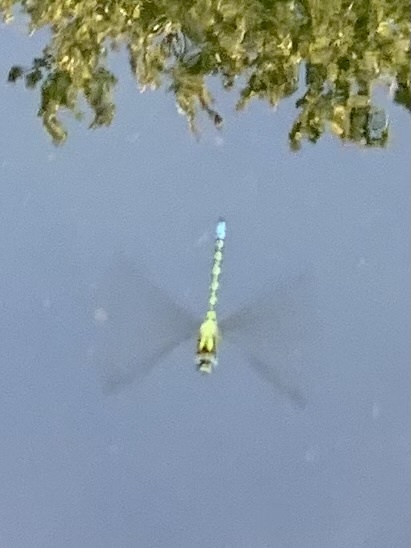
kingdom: Animalia
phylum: Arthropoda
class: Insecta
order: Odonata
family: Aeshnidae
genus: Aeshna
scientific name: Aeshna cyanea
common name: Southern hawker
